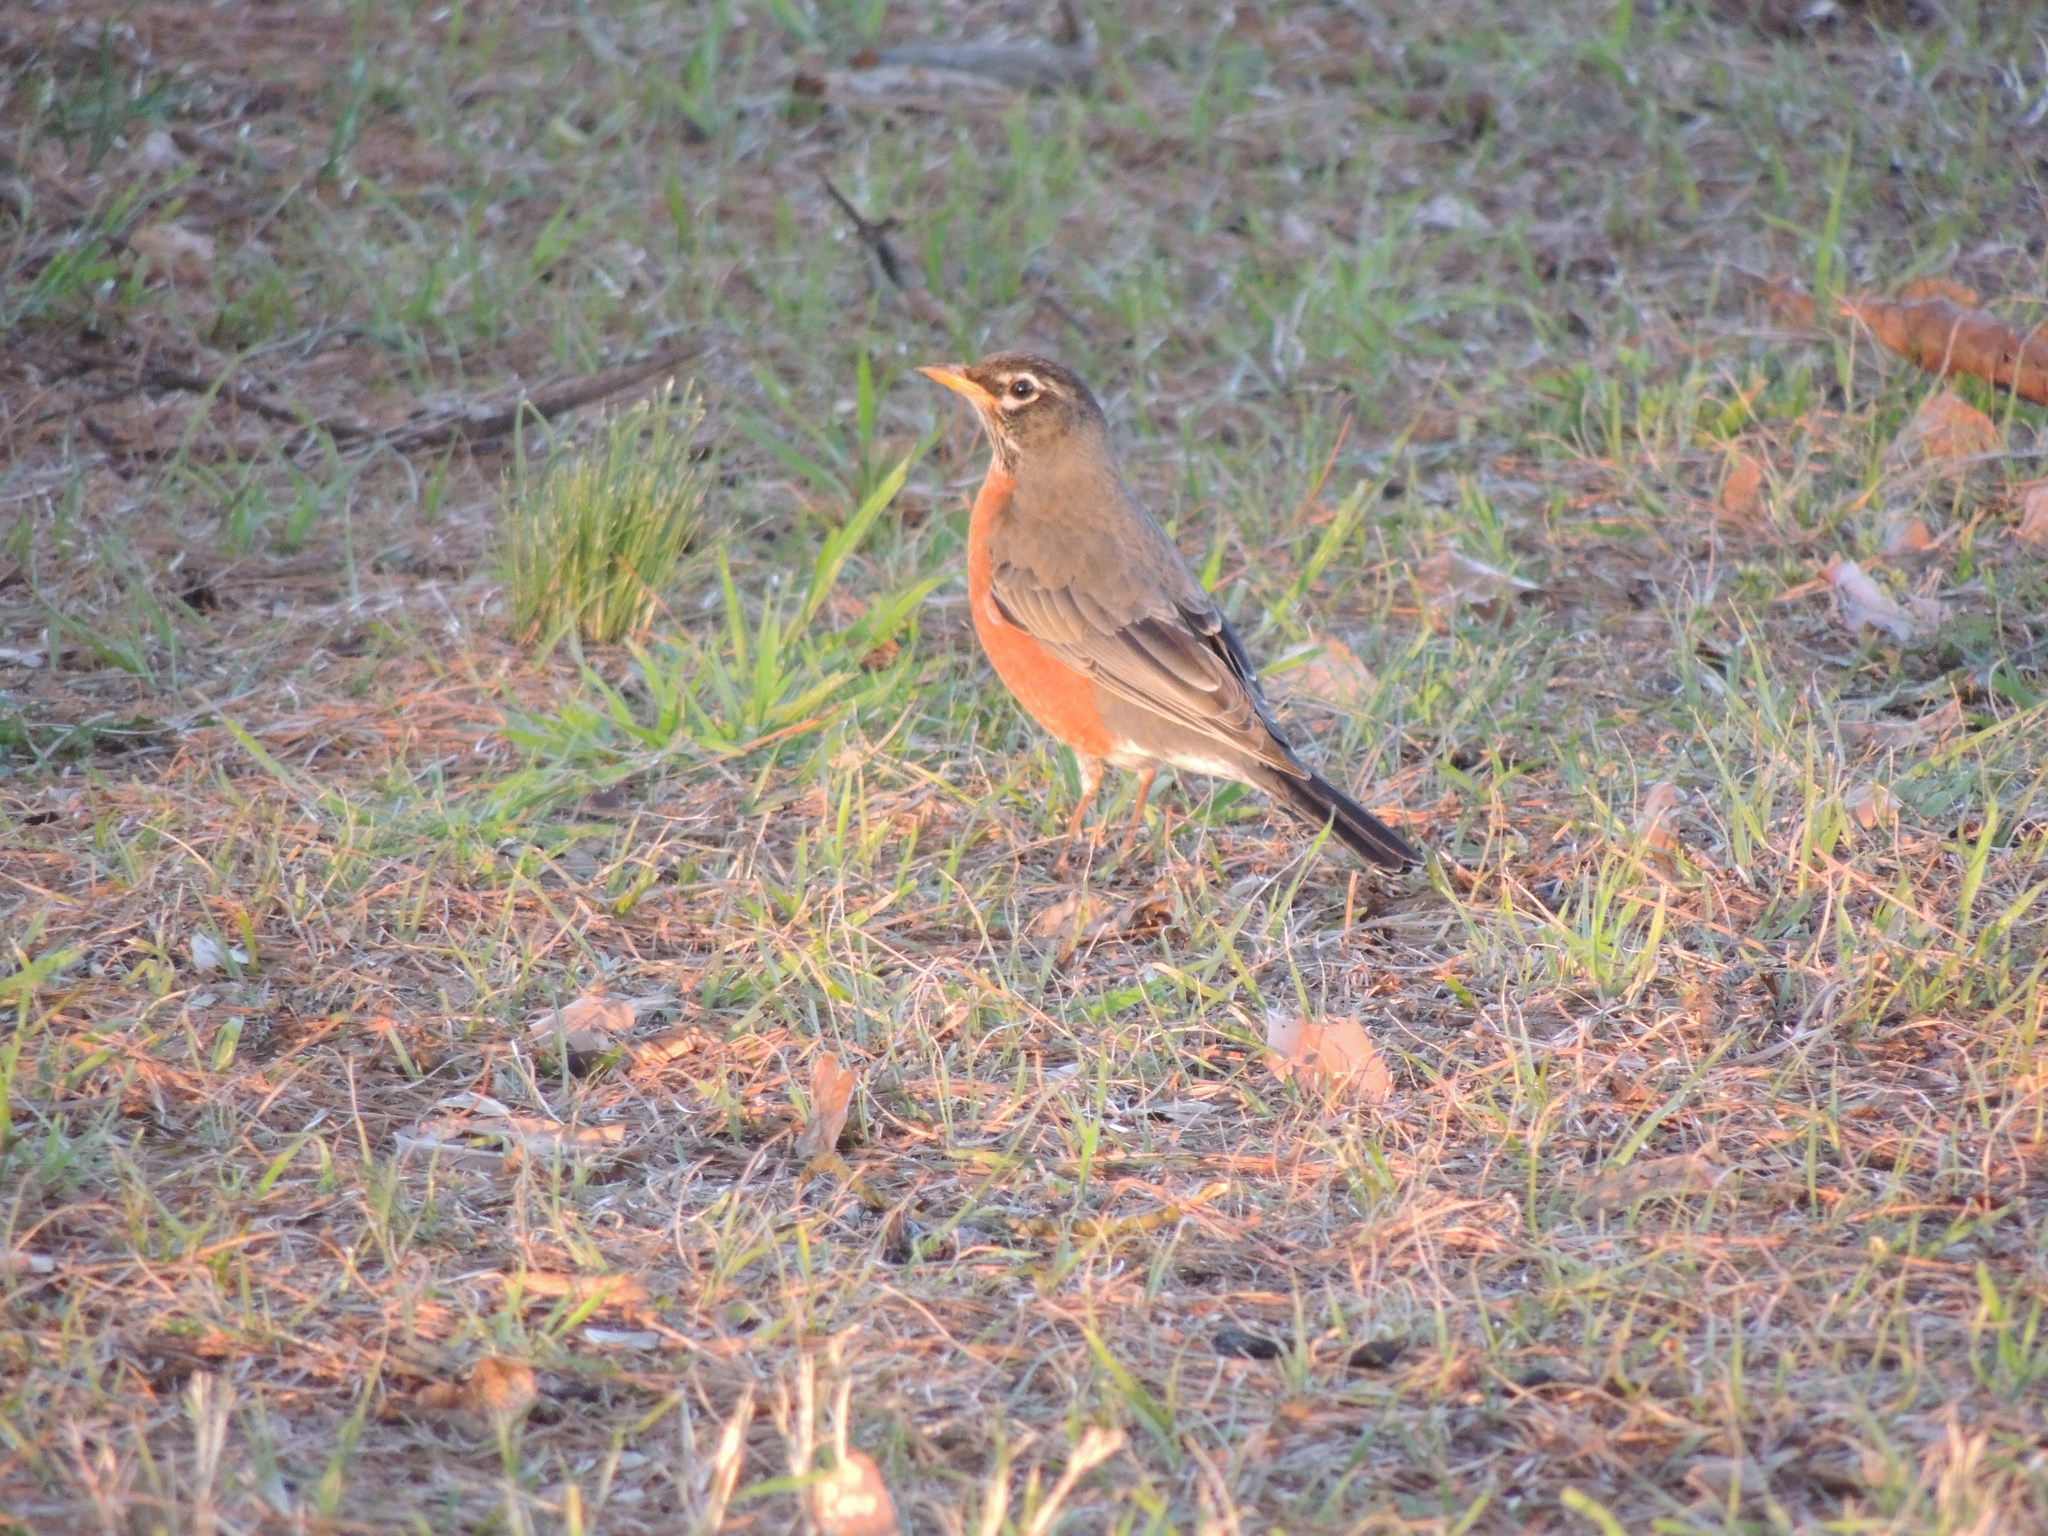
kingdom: Animalia
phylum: Chordata
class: Aves
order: Passeriformes
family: Turdidae
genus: Turdus
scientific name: Turdus migratorius
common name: American robin
